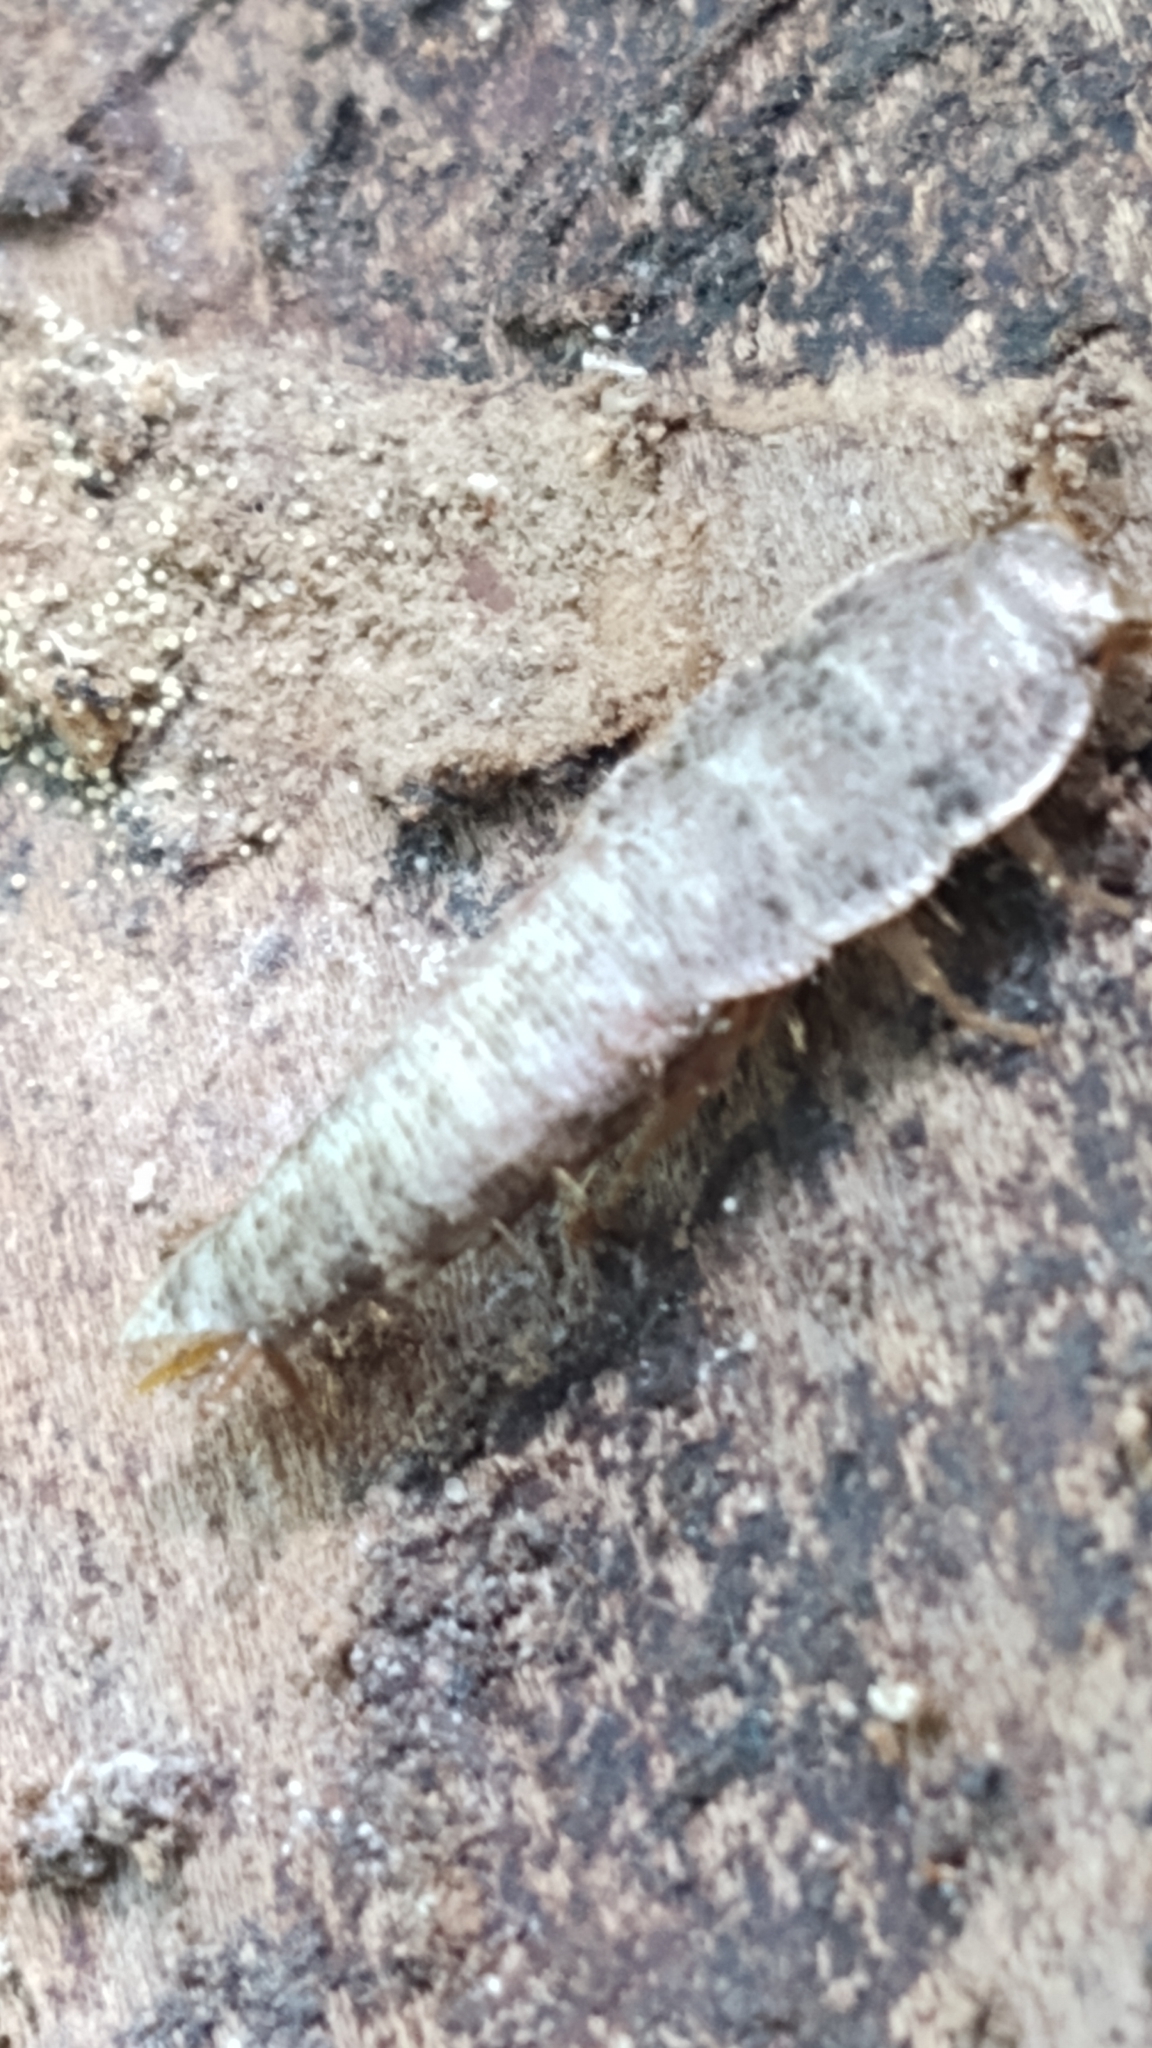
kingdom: Animalia
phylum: Arthropoda
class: Insecta
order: Zygentoma
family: Lepismatidae
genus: Allacrotelsa
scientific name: Allacrotelsa spinulata
